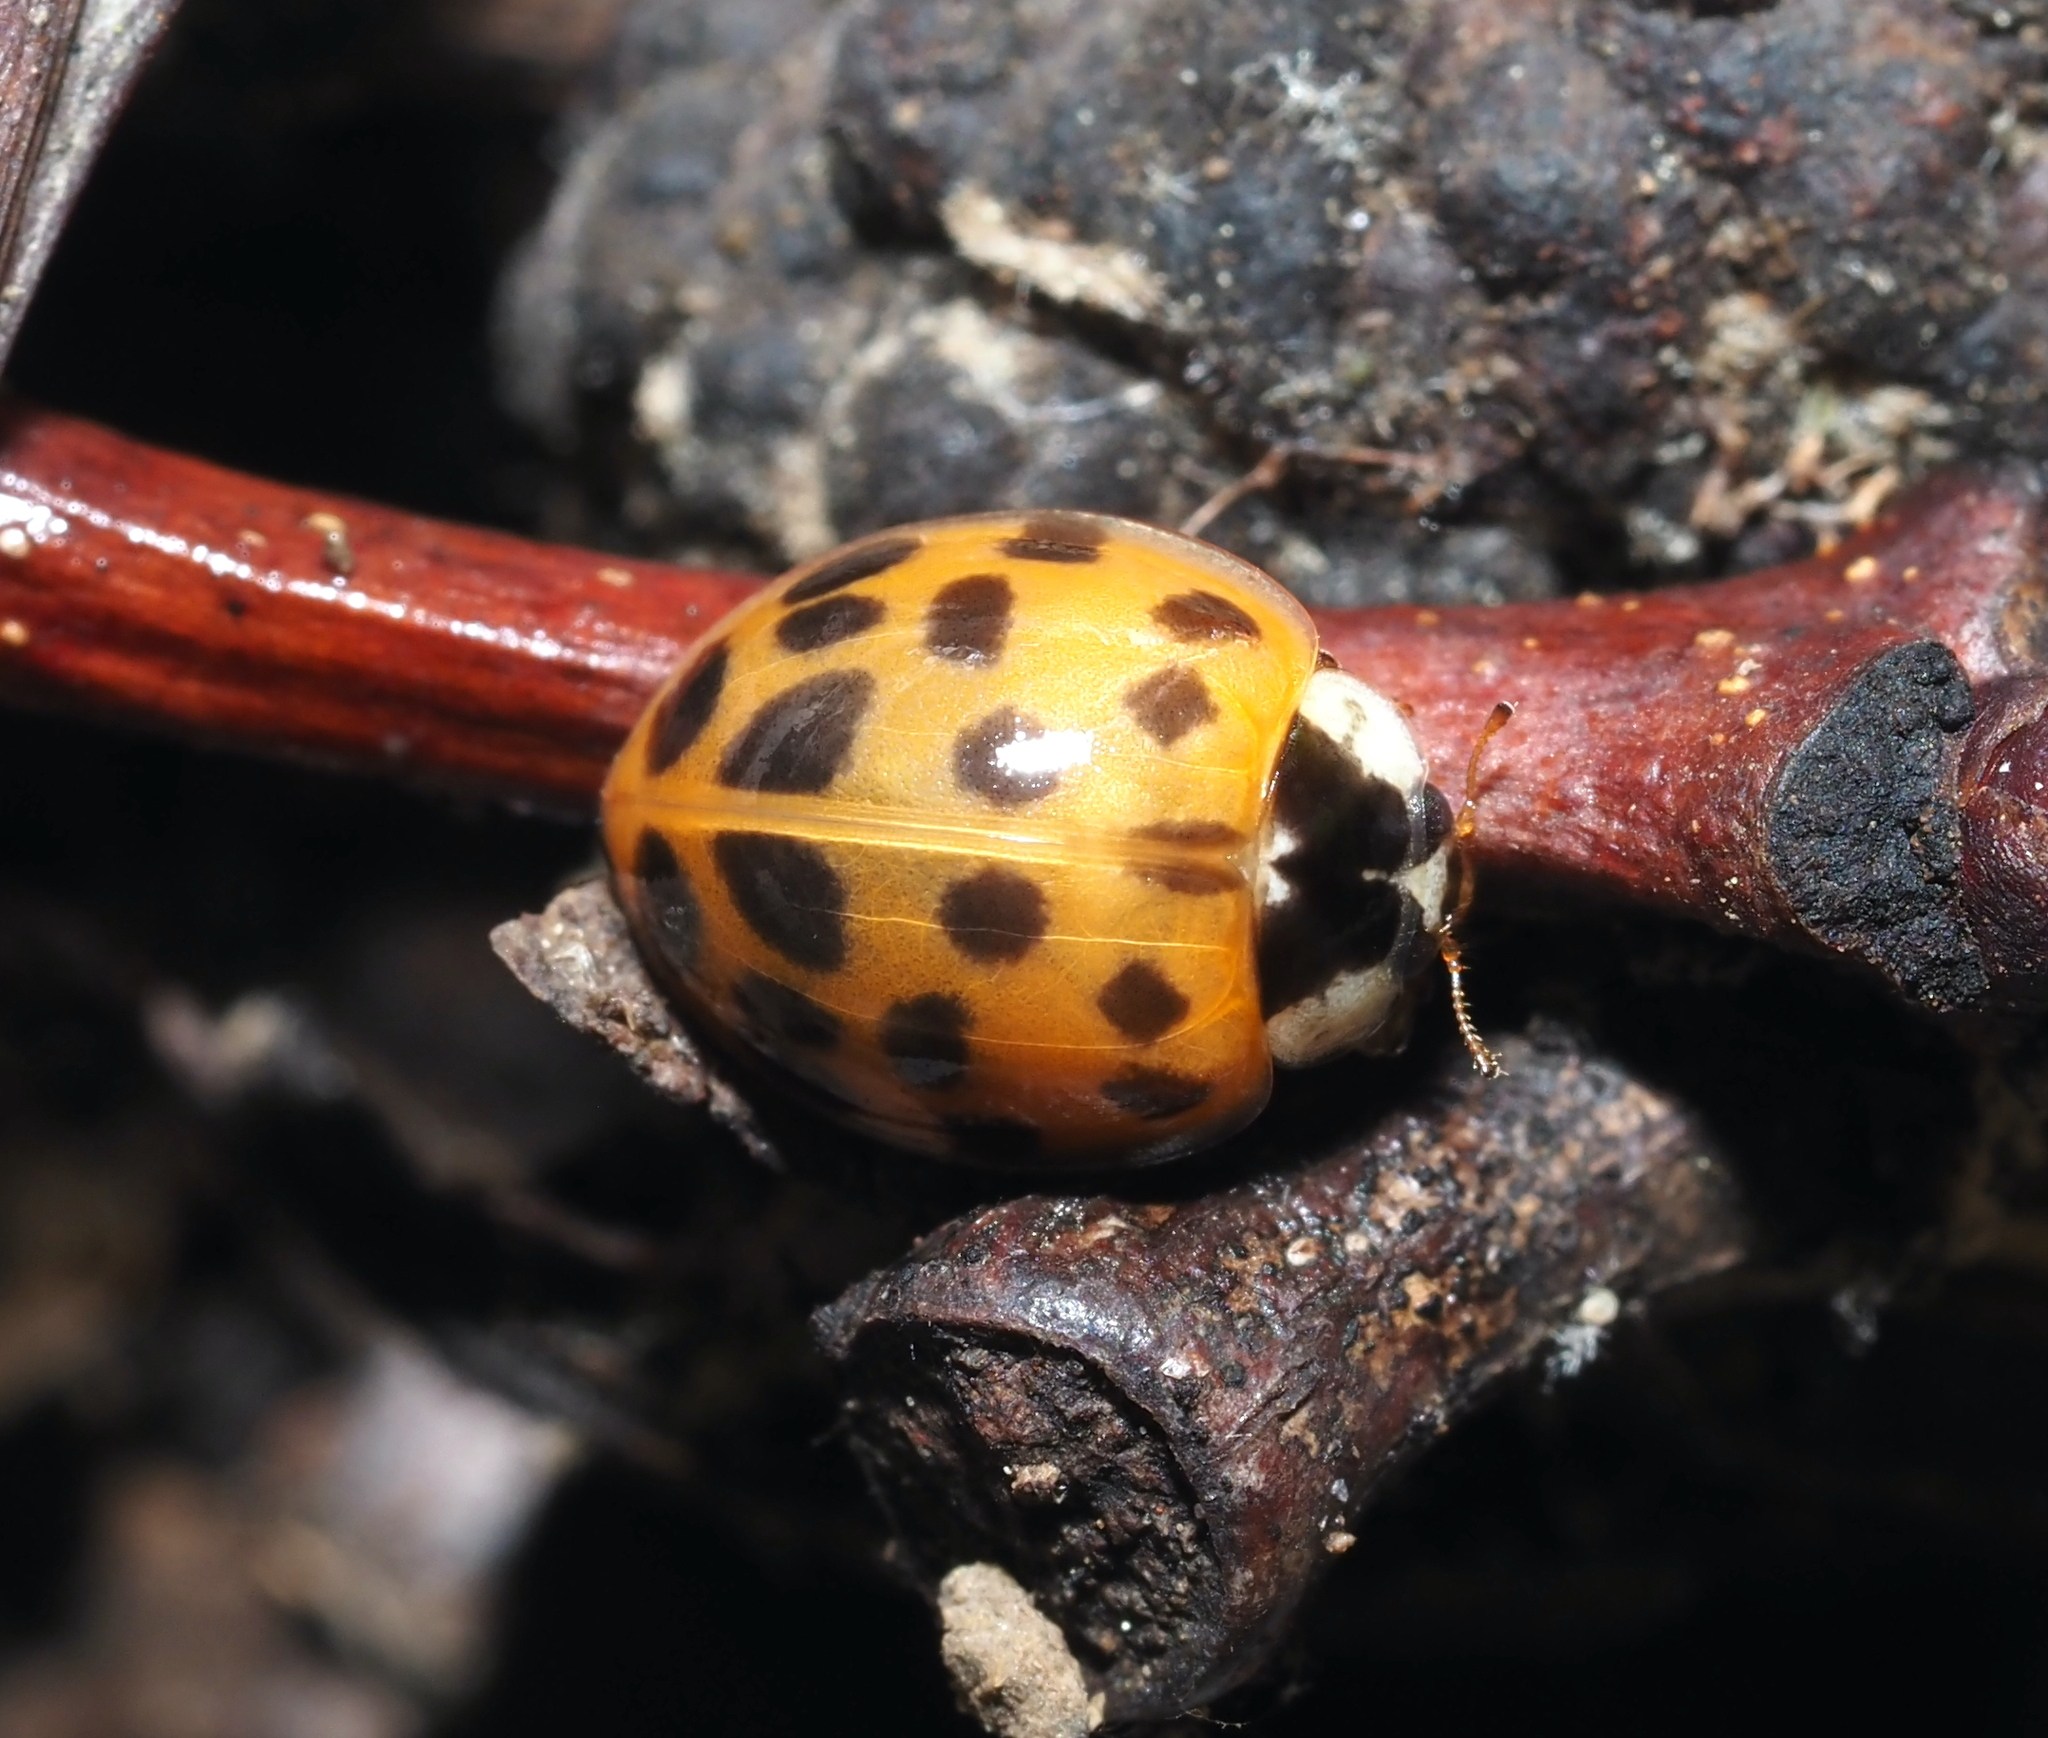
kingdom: Animalia
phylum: Arthropoda
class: Insecta
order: Coleoptera
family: Coccinellidae
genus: Harmonia
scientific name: Harmonia axyridis
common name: Harlequin ladybird
